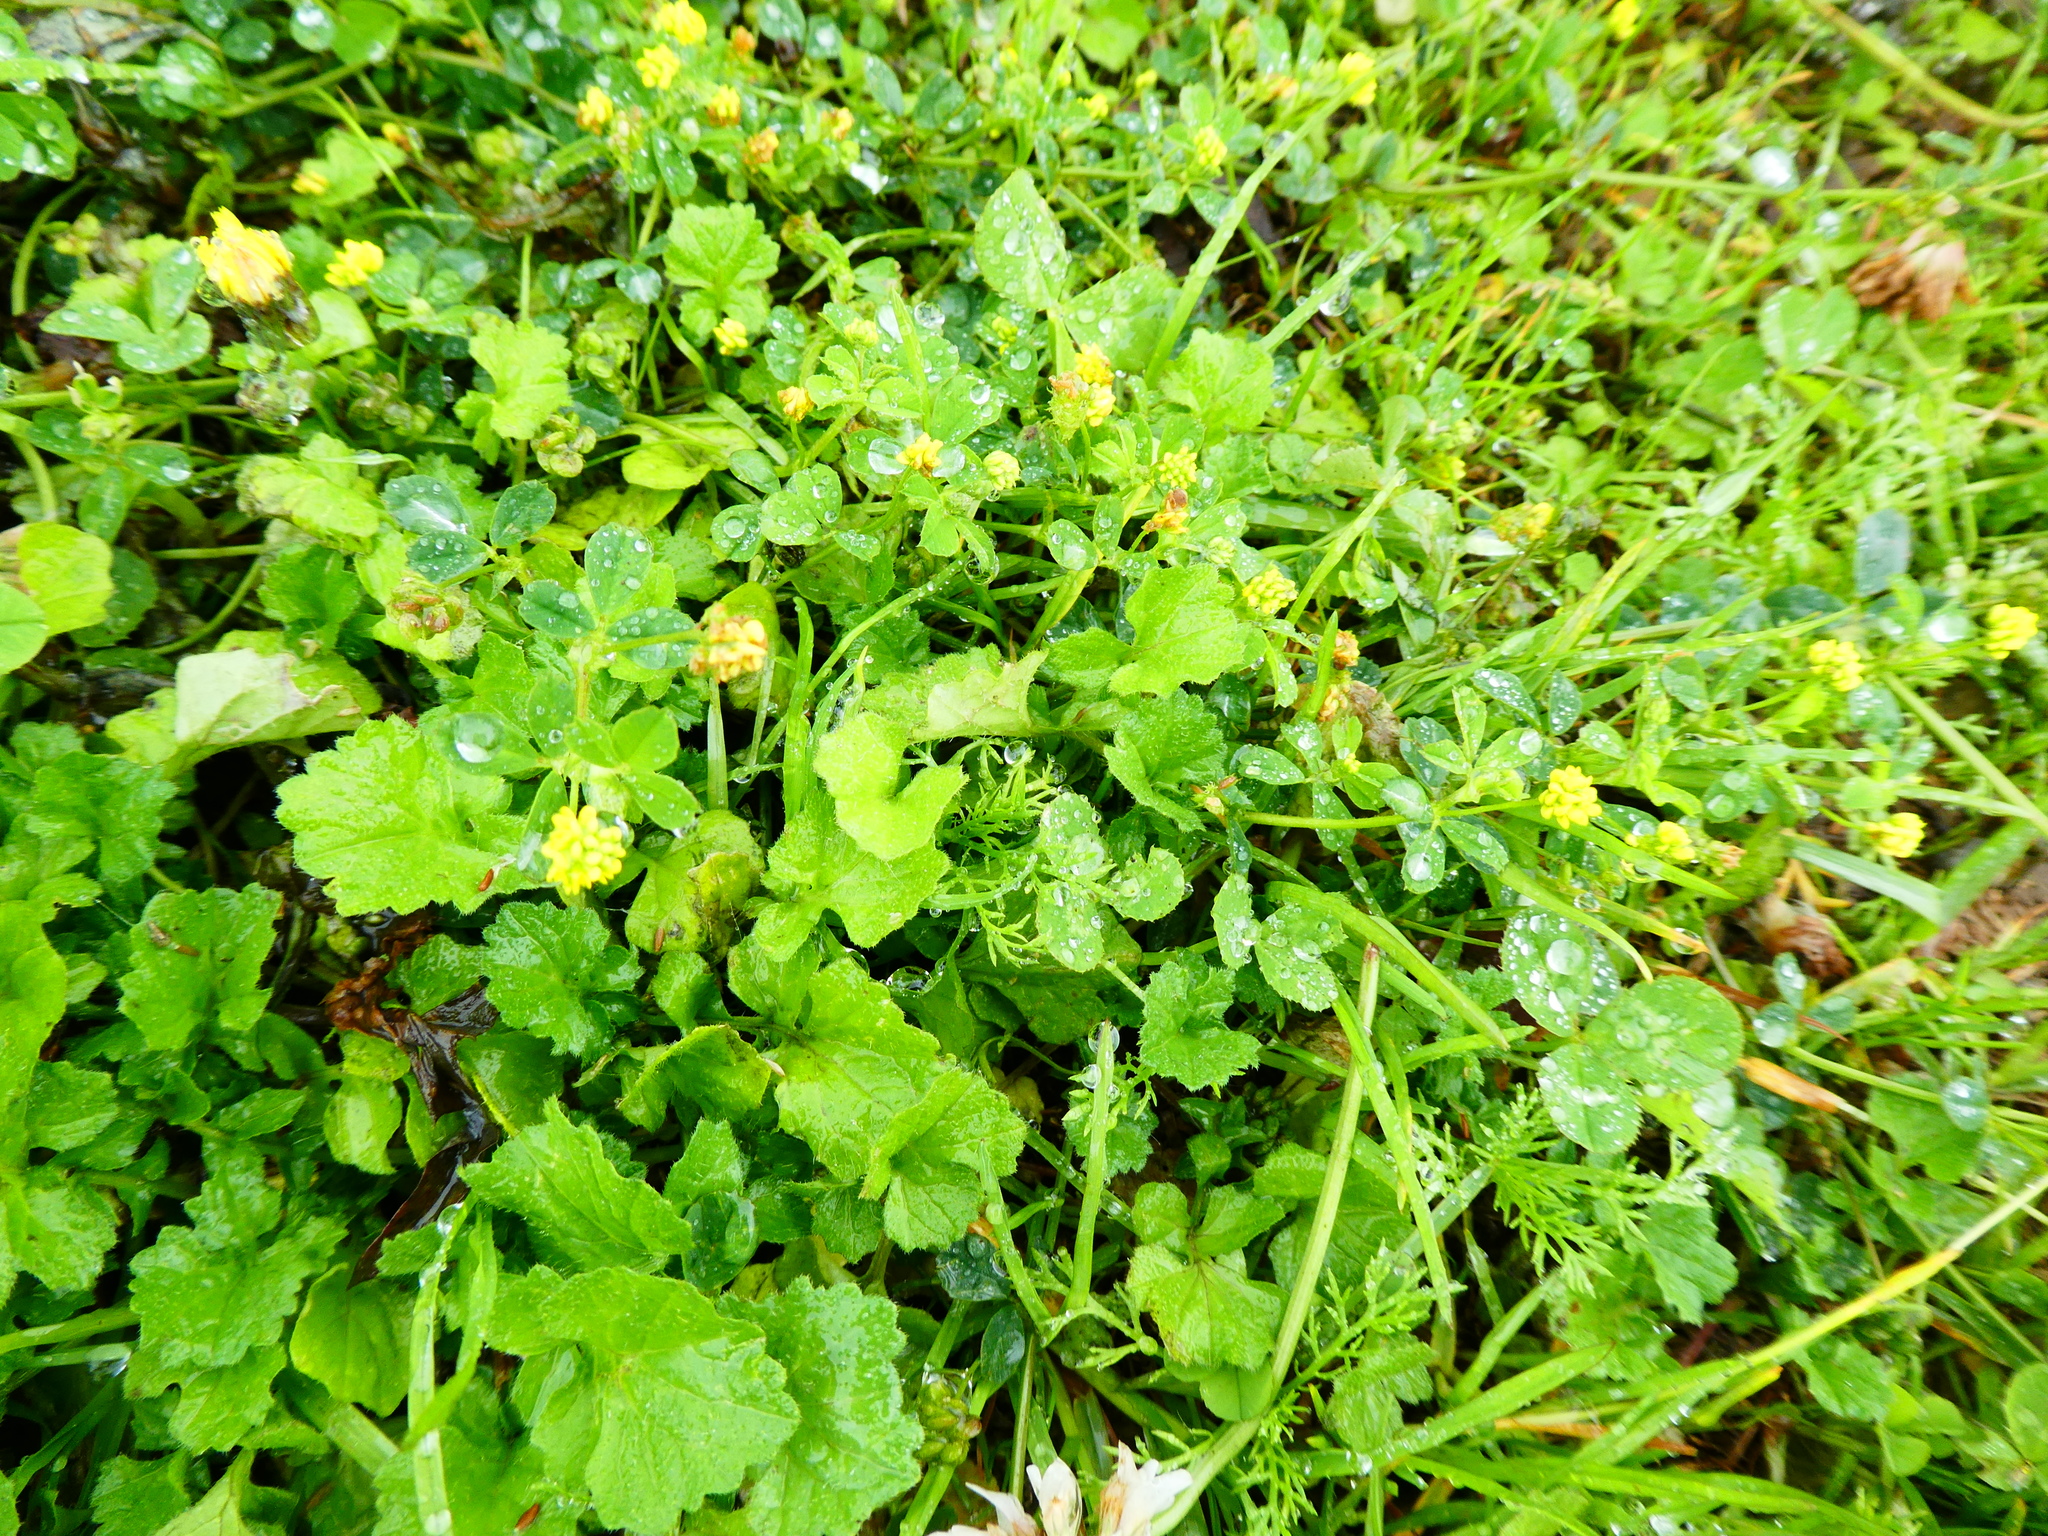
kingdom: Plantae
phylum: Tracheophyta
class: Magnoliopsida
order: Fabales
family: Fabaceae
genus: Medicago
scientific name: Medicago lupulina
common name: Black medick
